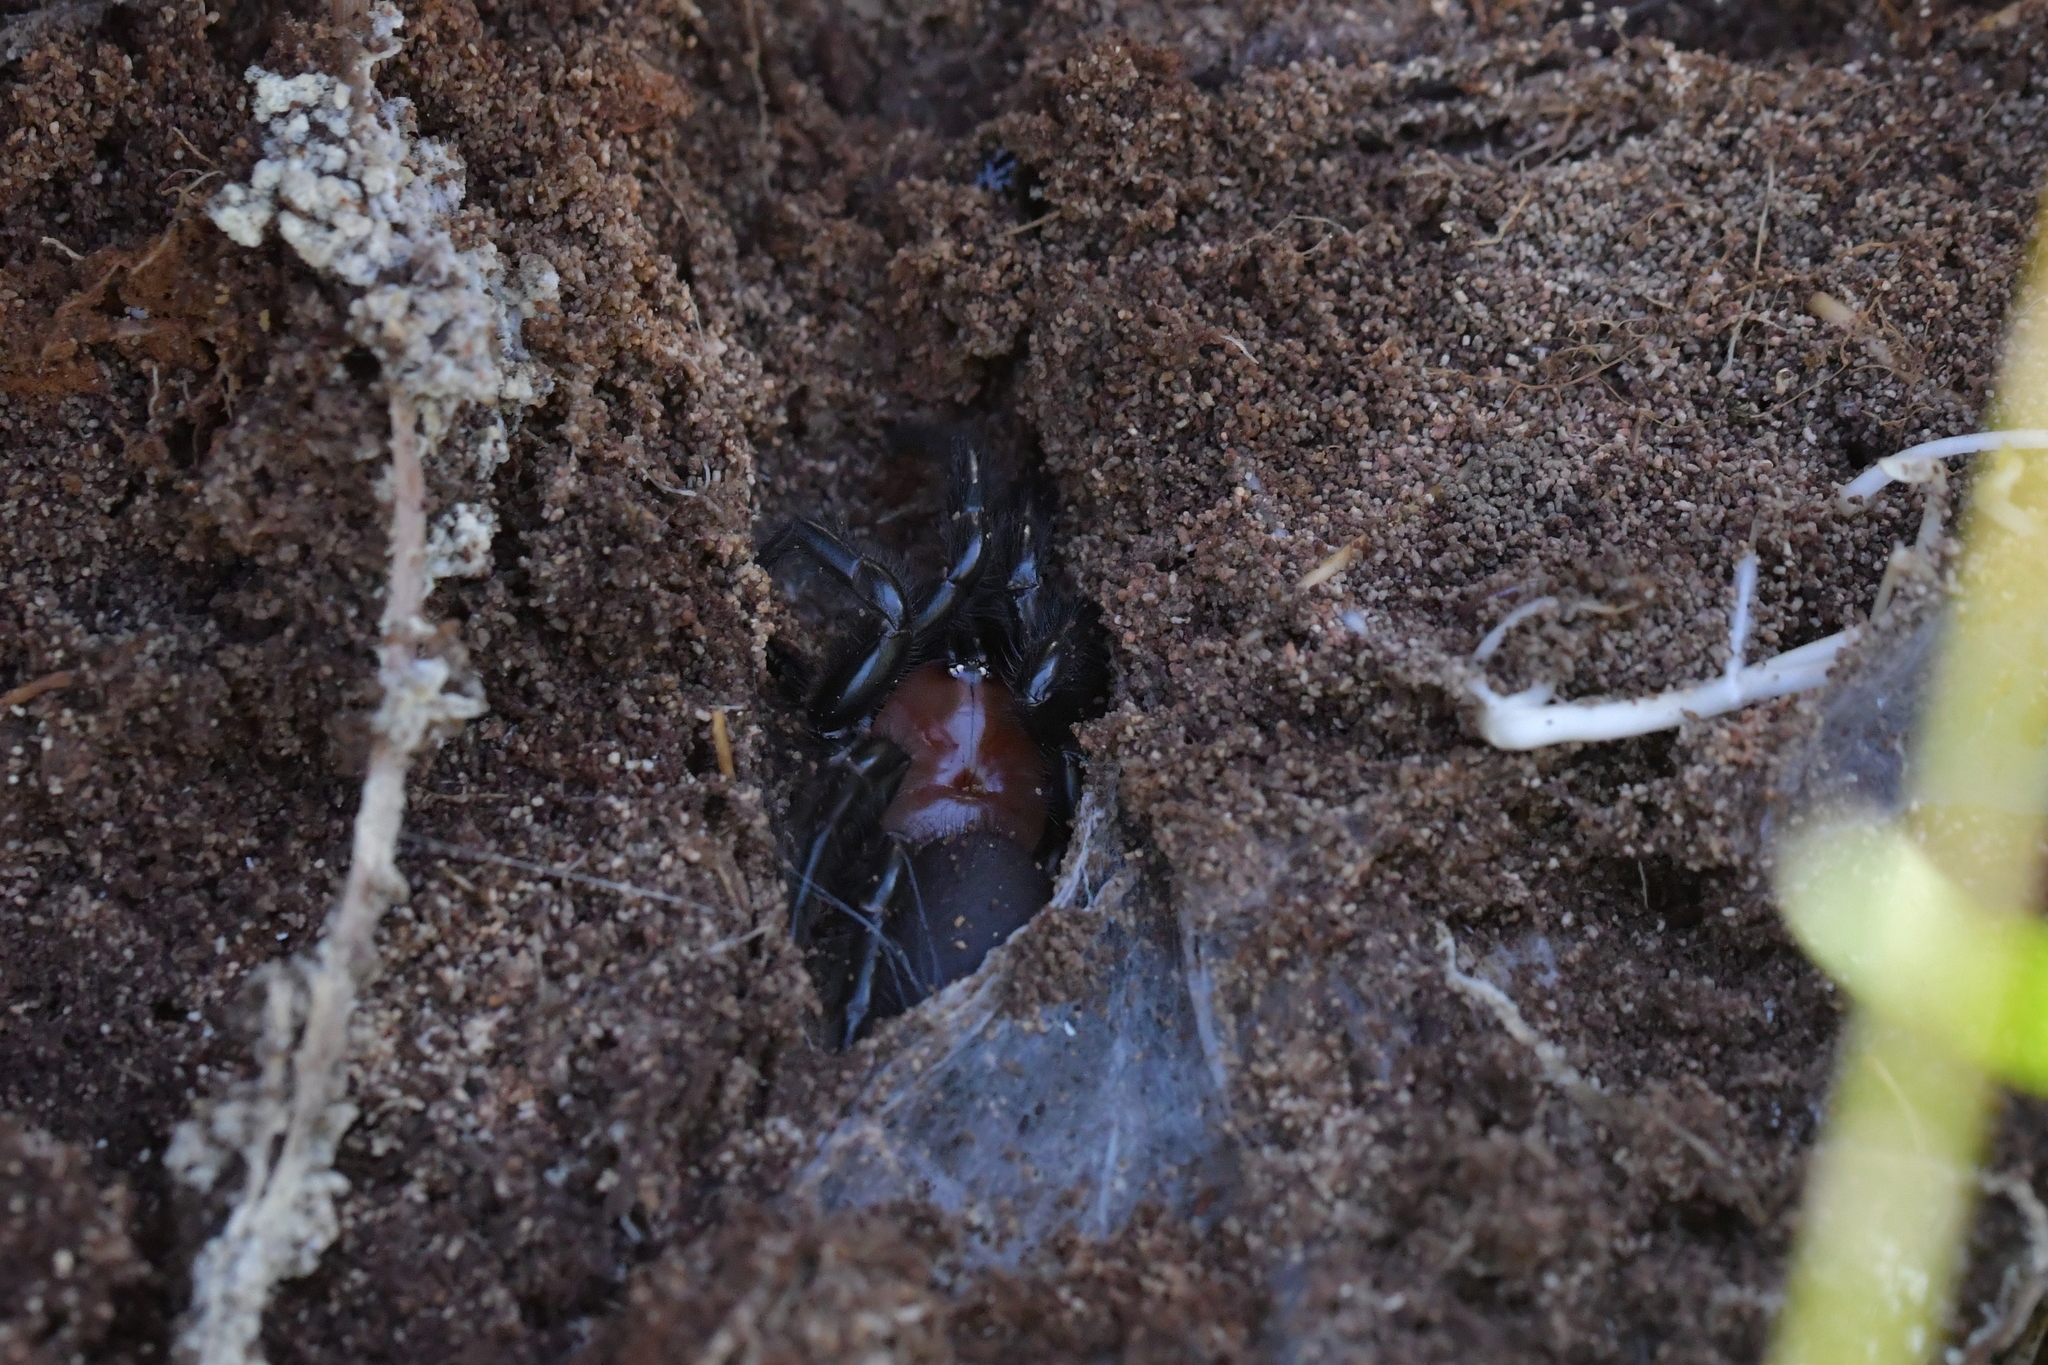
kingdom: Animalia
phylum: Arthropoda
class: Arachnida
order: Araneae
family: Porrhothelidae
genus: Porrhothele
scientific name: Porrhothele antipodiana
